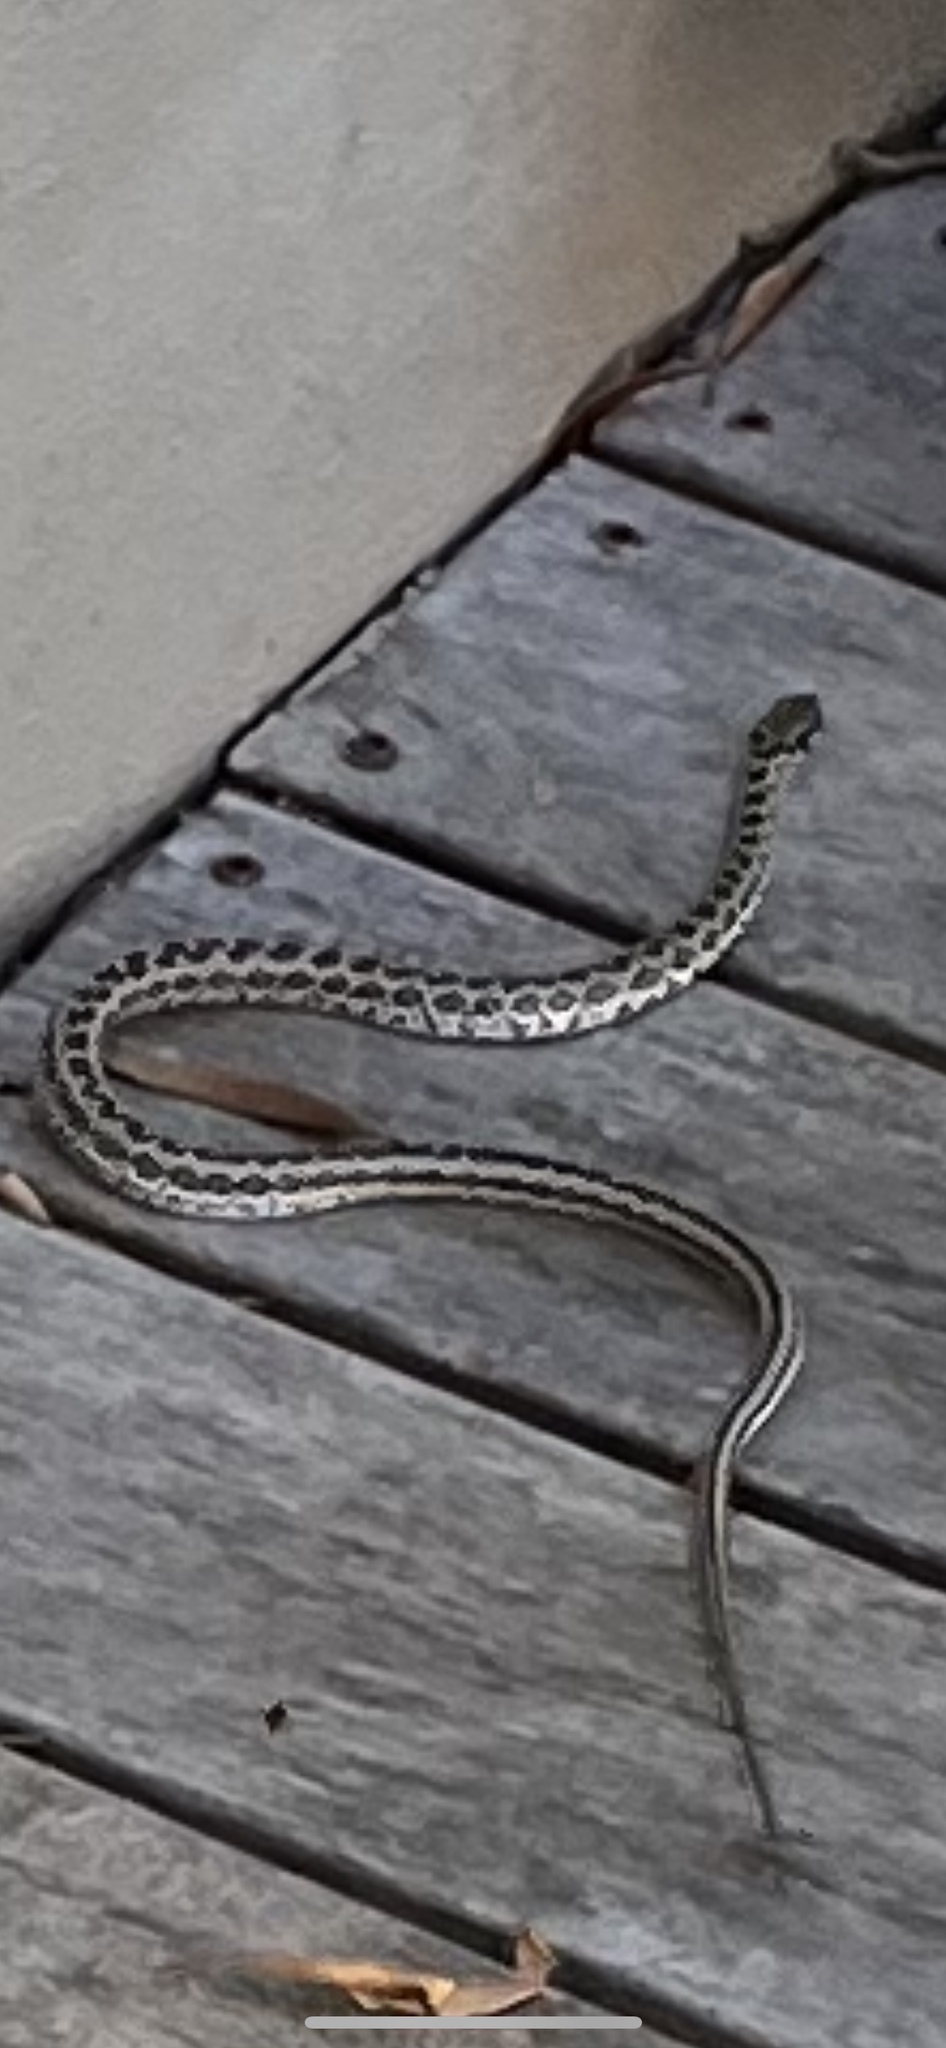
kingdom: Animalia
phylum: Chordata
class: Squamata
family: Psammophiidae
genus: Psammophylax
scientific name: Psammophylax rhombeatus
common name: Rhombic skaapsteker
